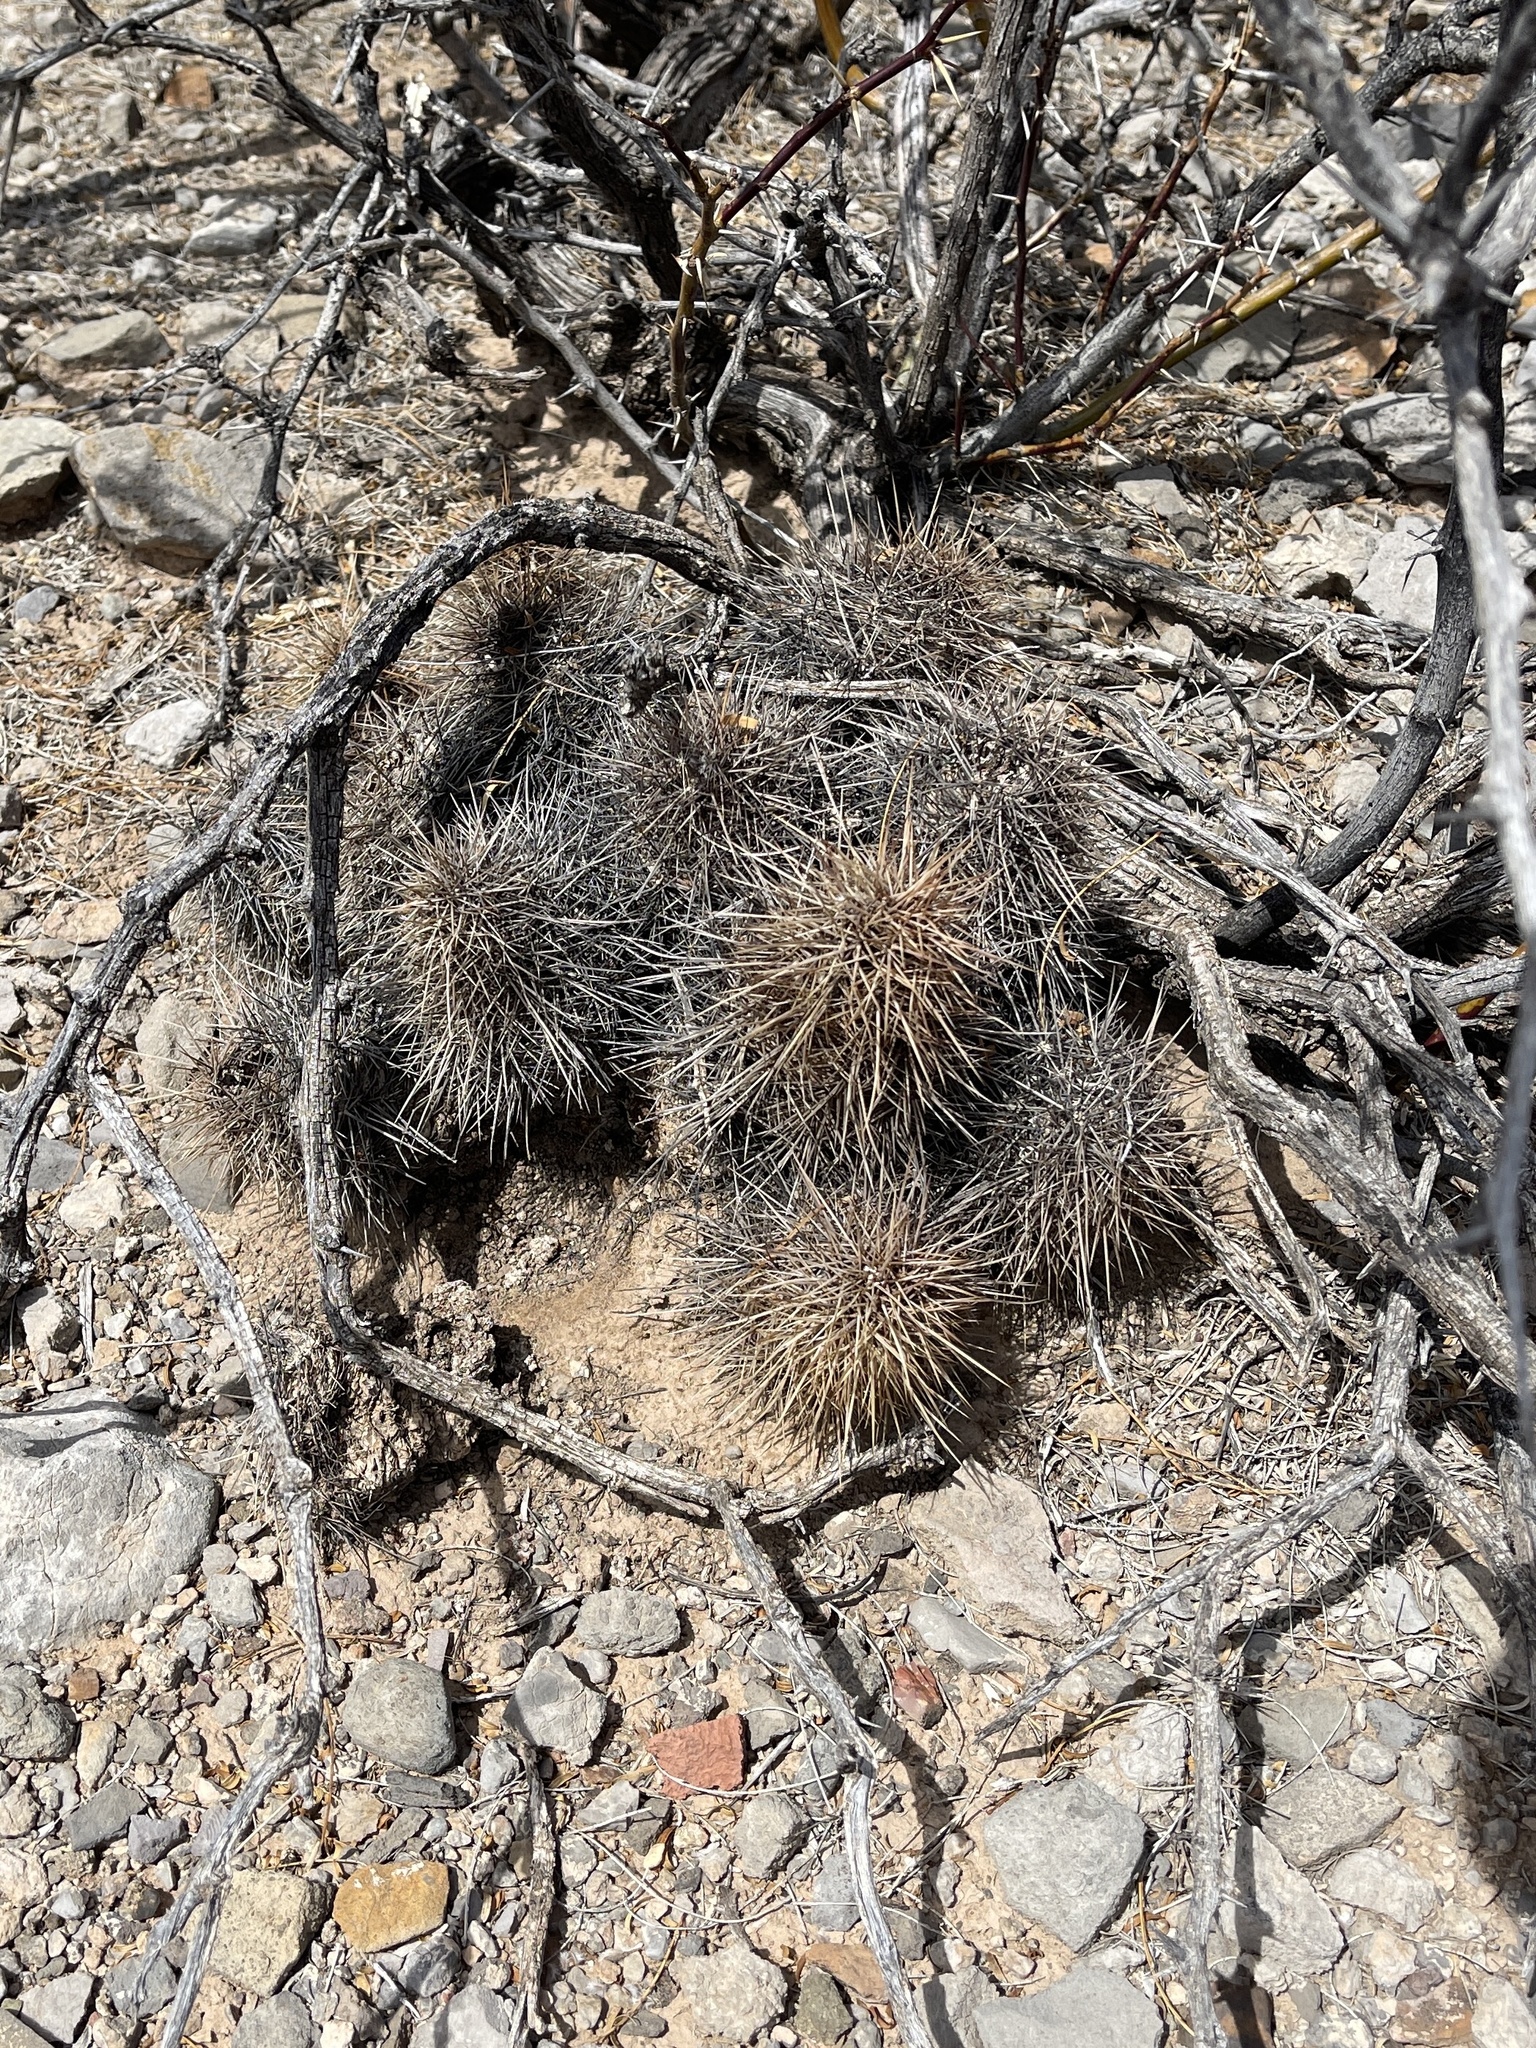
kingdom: Plantae
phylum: Tracheophyta
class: Magnoliopsida
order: Caryophyllales
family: Cactaceae
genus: Echinocereus
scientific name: Echinocereus coccineus
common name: Scarlet hedgehog cactus
